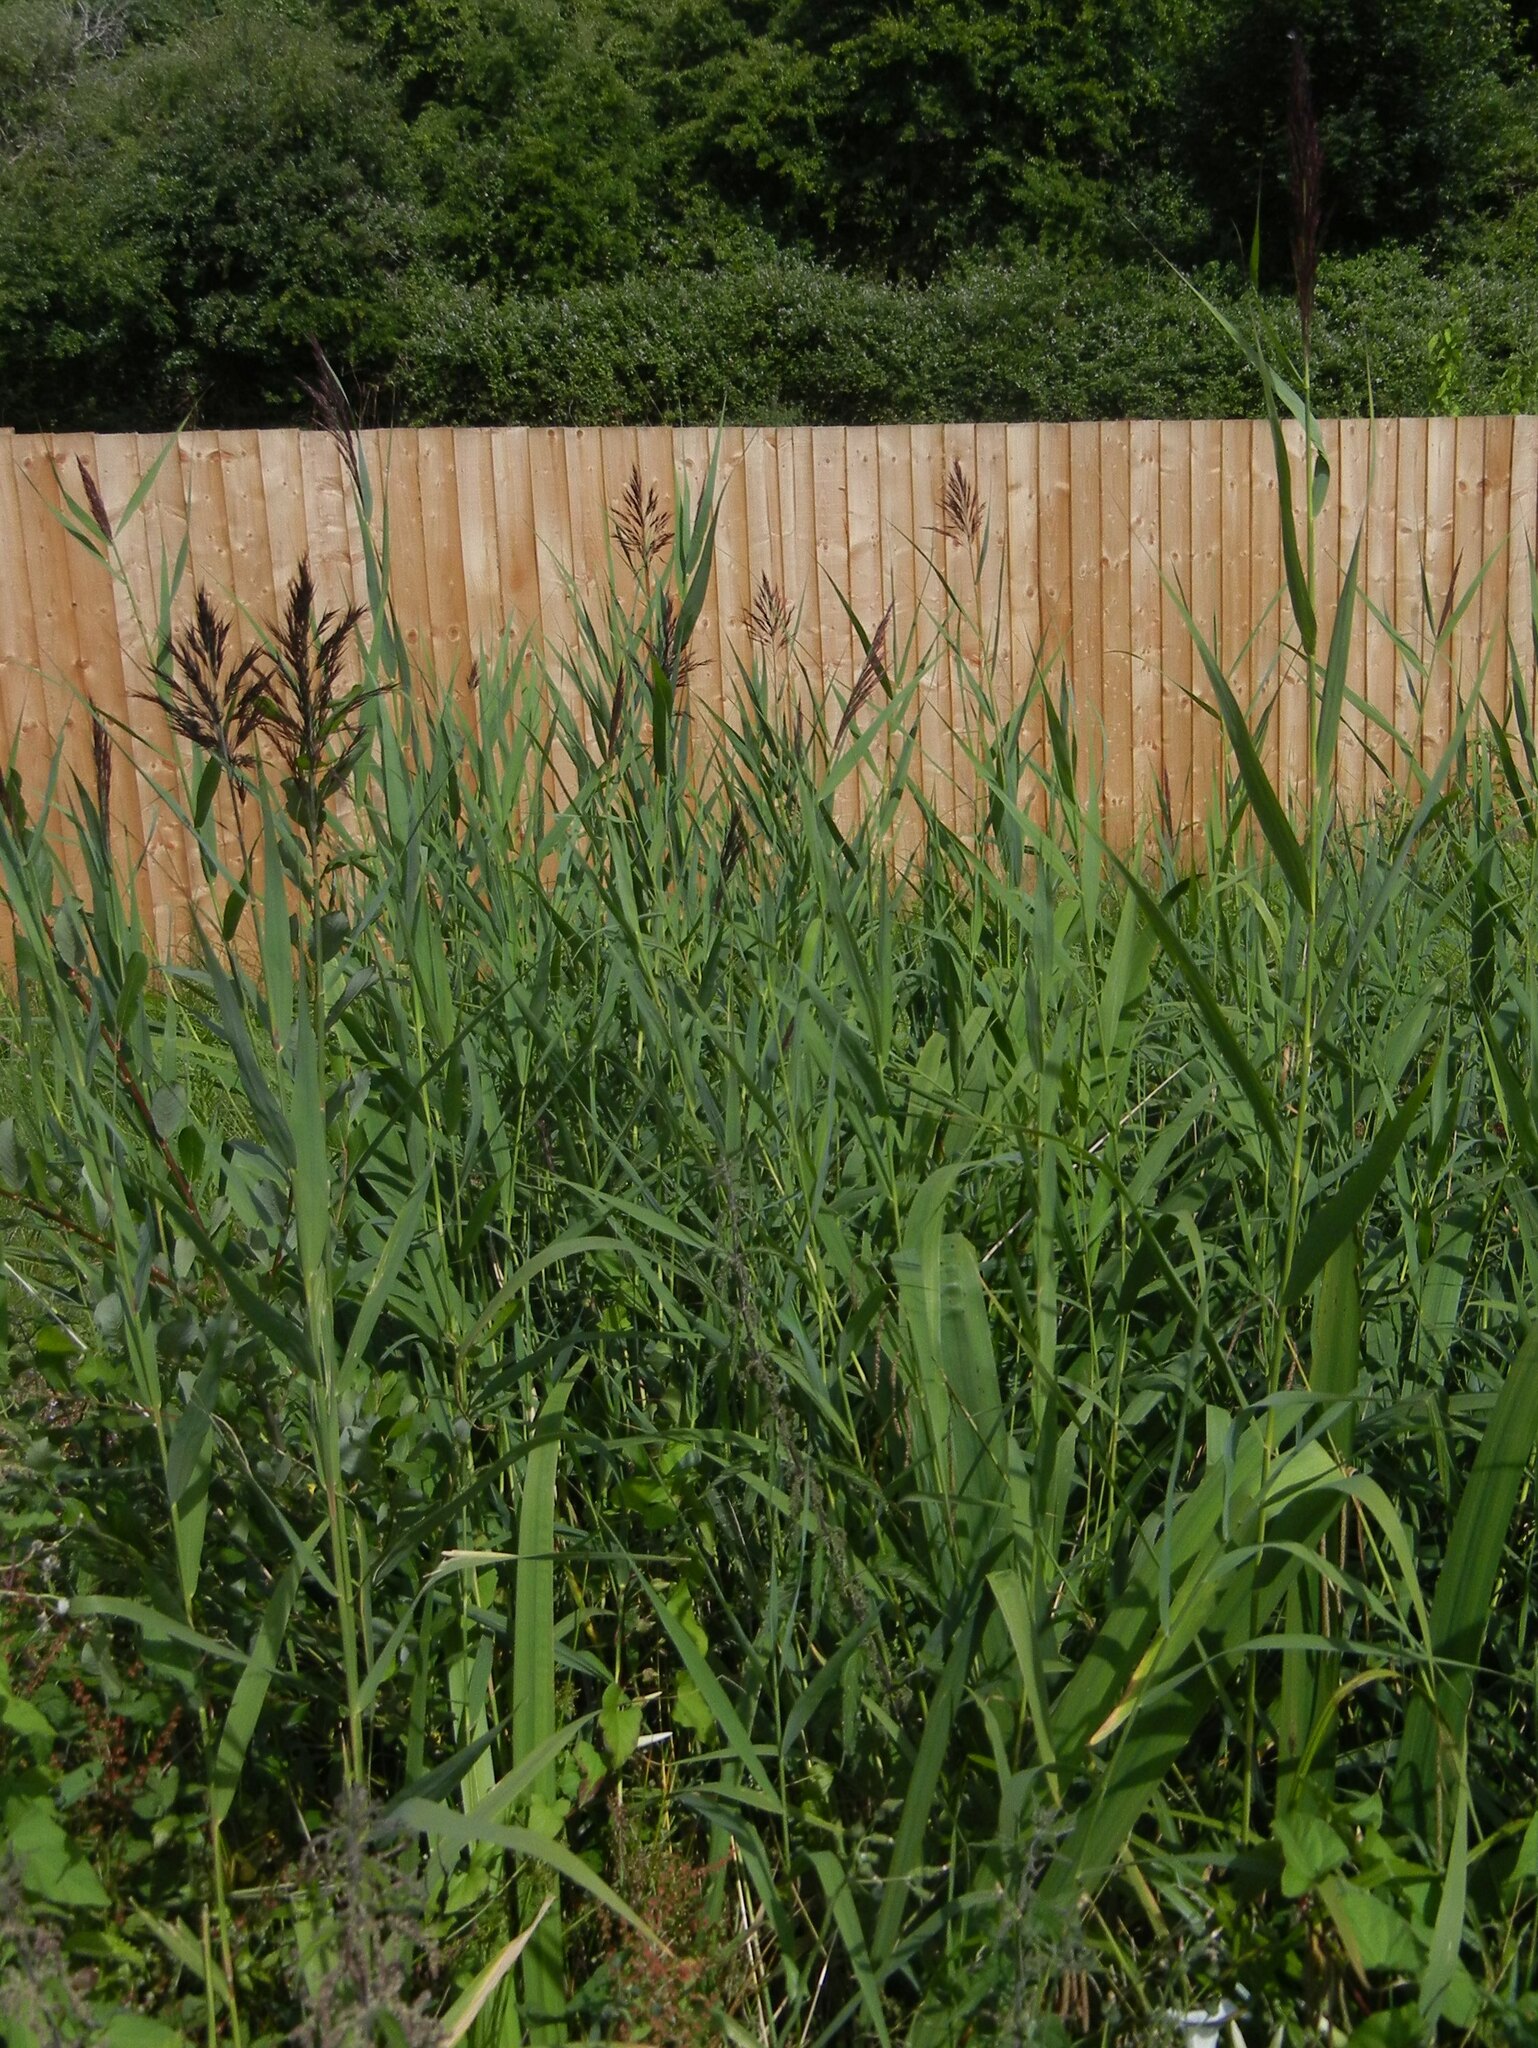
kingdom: Plantae
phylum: Tracheophyta
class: Liliopsida
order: Poales
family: Poaceae
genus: Phragmites
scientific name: Phragmites australis
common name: Common reed
